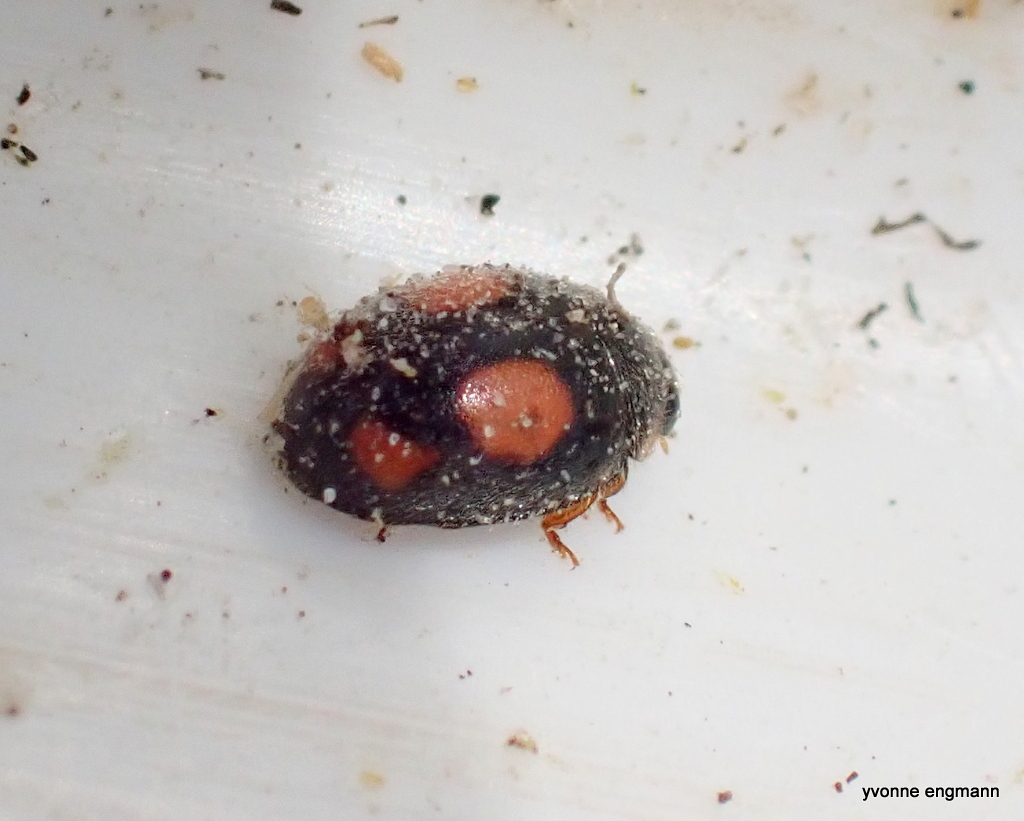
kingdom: Animalia
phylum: Arthropoda
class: Insecta
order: Coleoptera
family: Coccinellidae
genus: Platynaspis
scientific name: Platynaspis luteorubra
